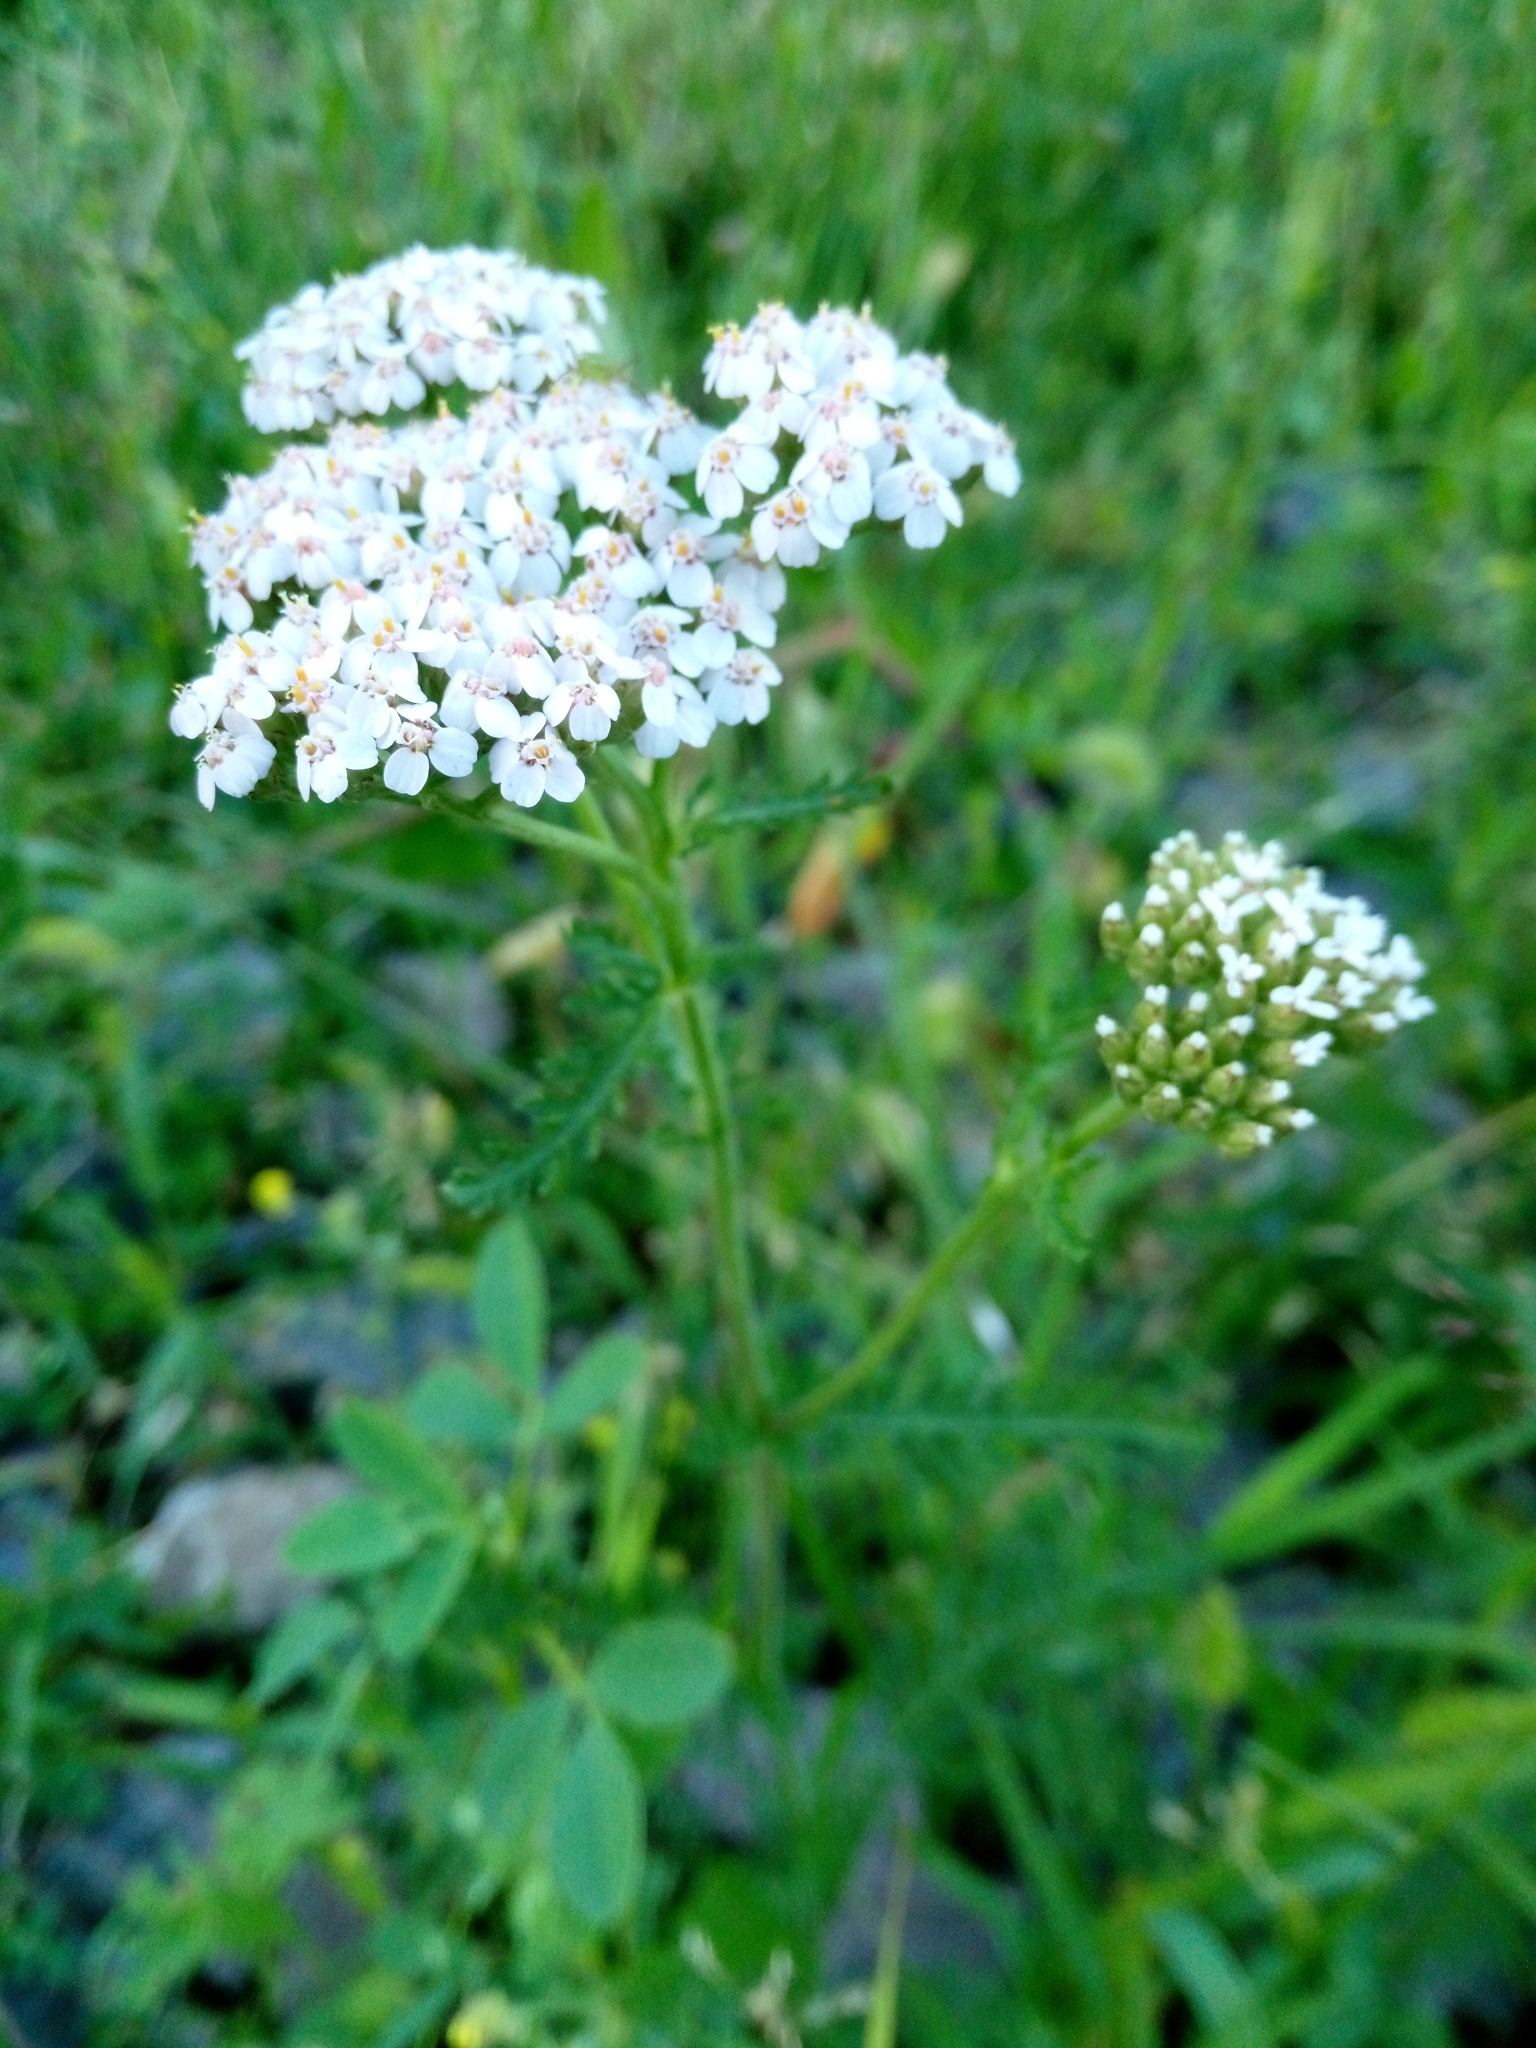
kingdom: Plantae
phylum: Tracheophyta
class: Magnoliopsida
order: Asterales
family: Asteraceae
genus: Achillea
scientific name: Achillea millefolium
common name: Yarrow
